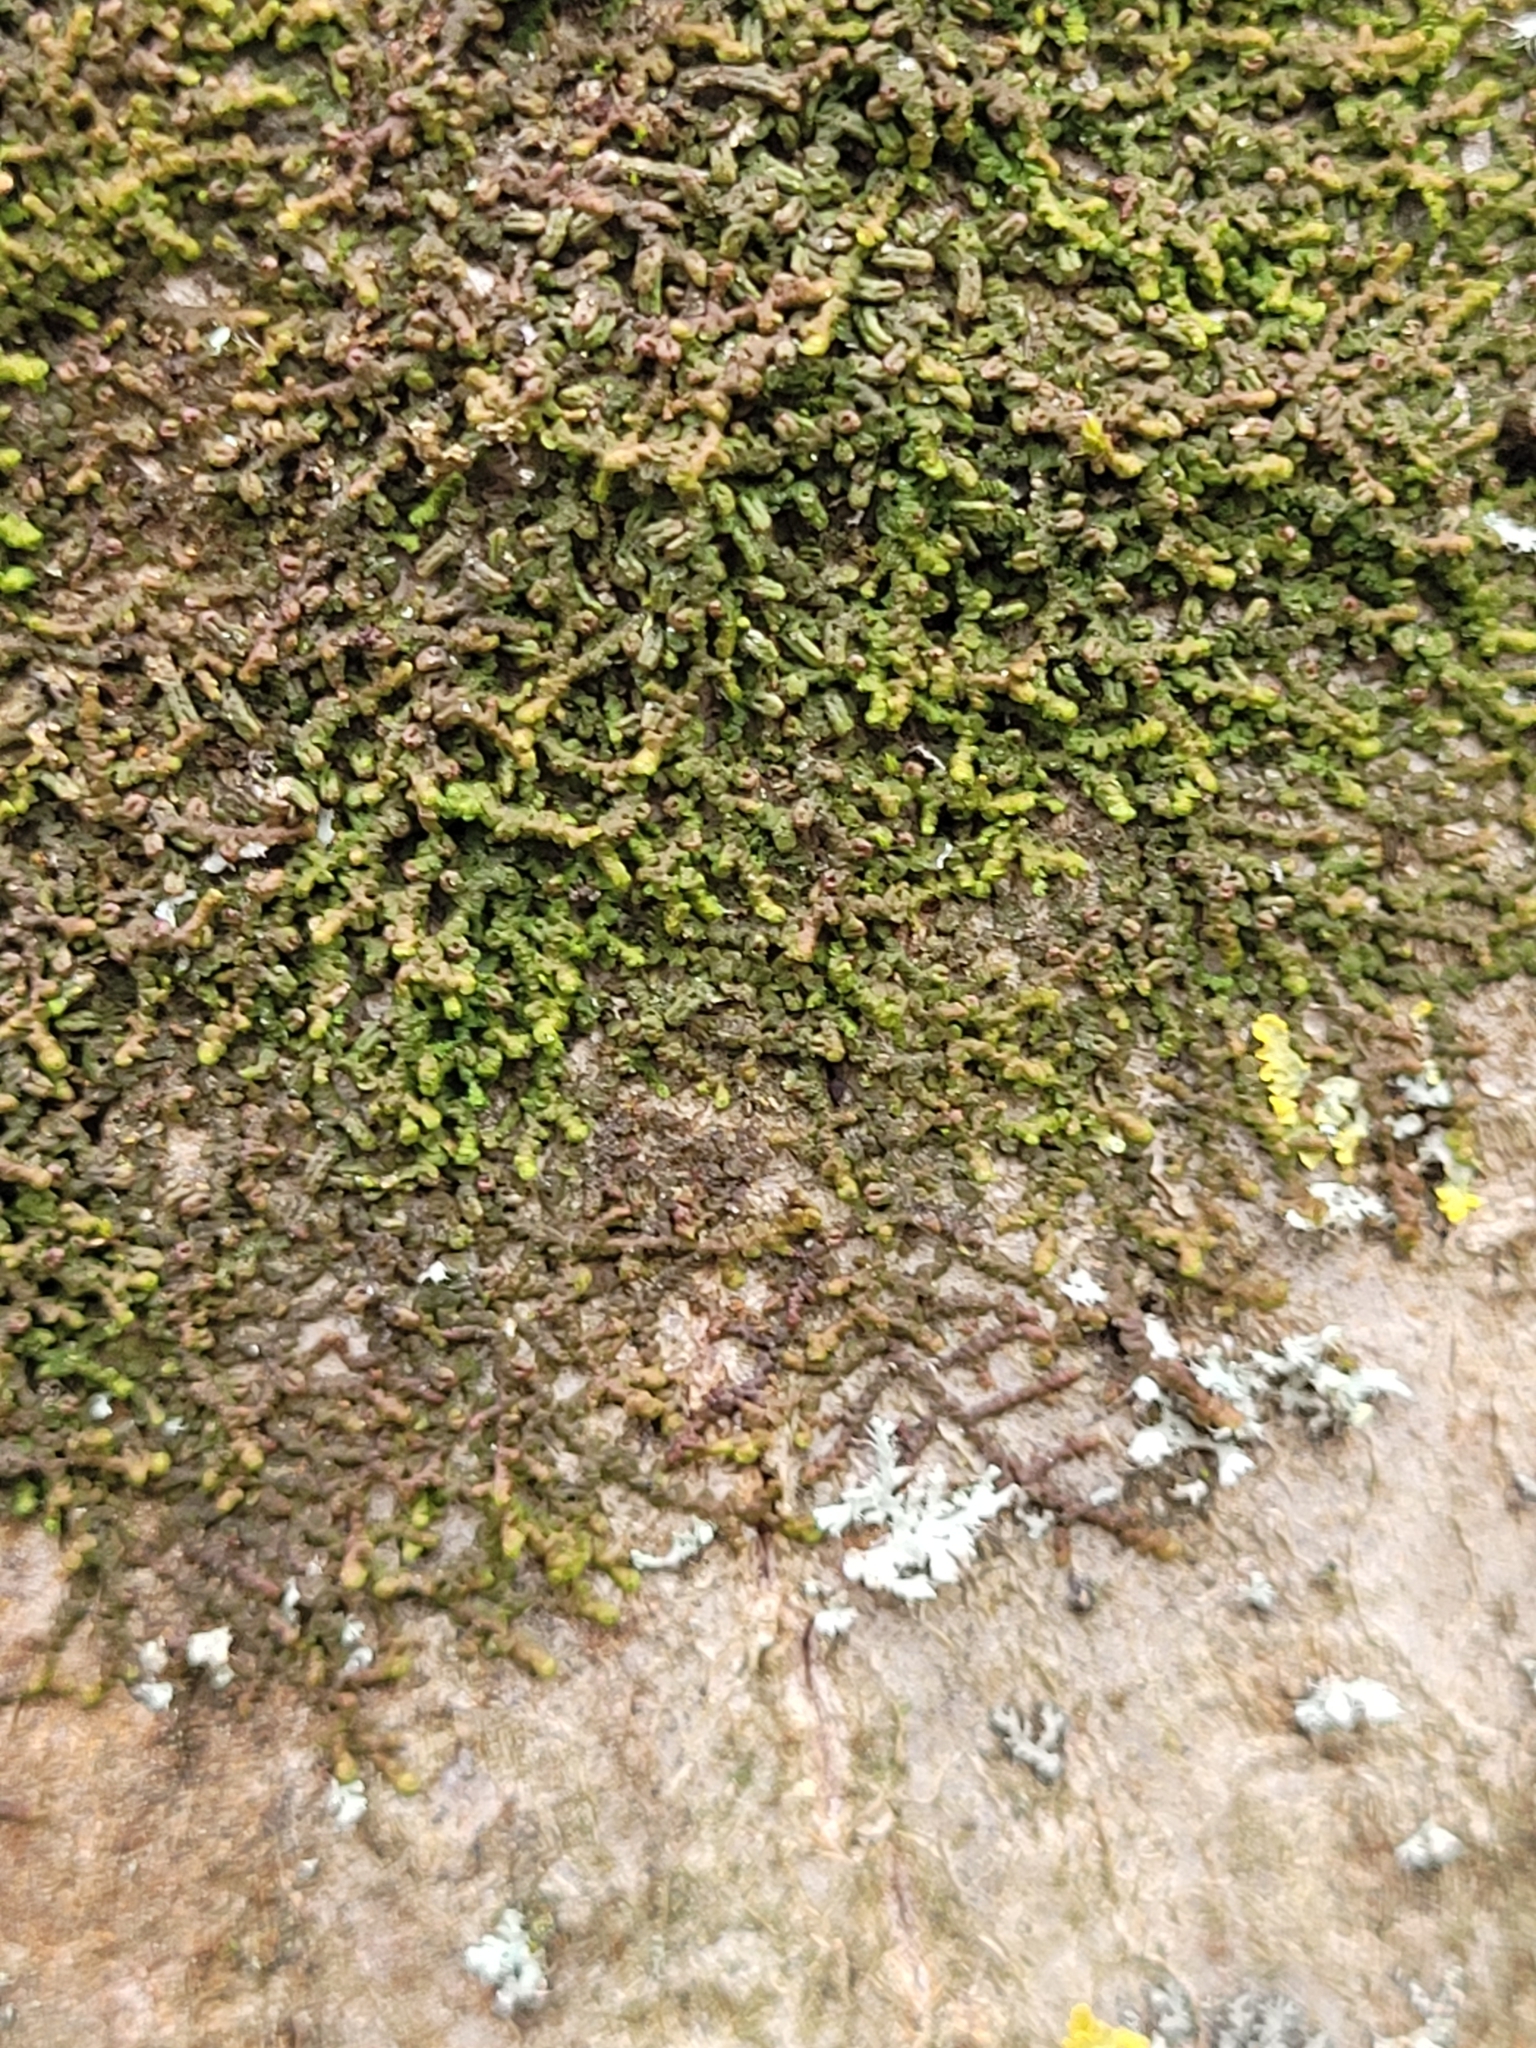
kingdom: Plantae
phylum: Marchantiophyta
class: Jungermanniopsida
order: Porellales
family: Frullaniaceae
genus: Frullania
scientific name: Frullania dilatata
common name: Dilated scalewort
